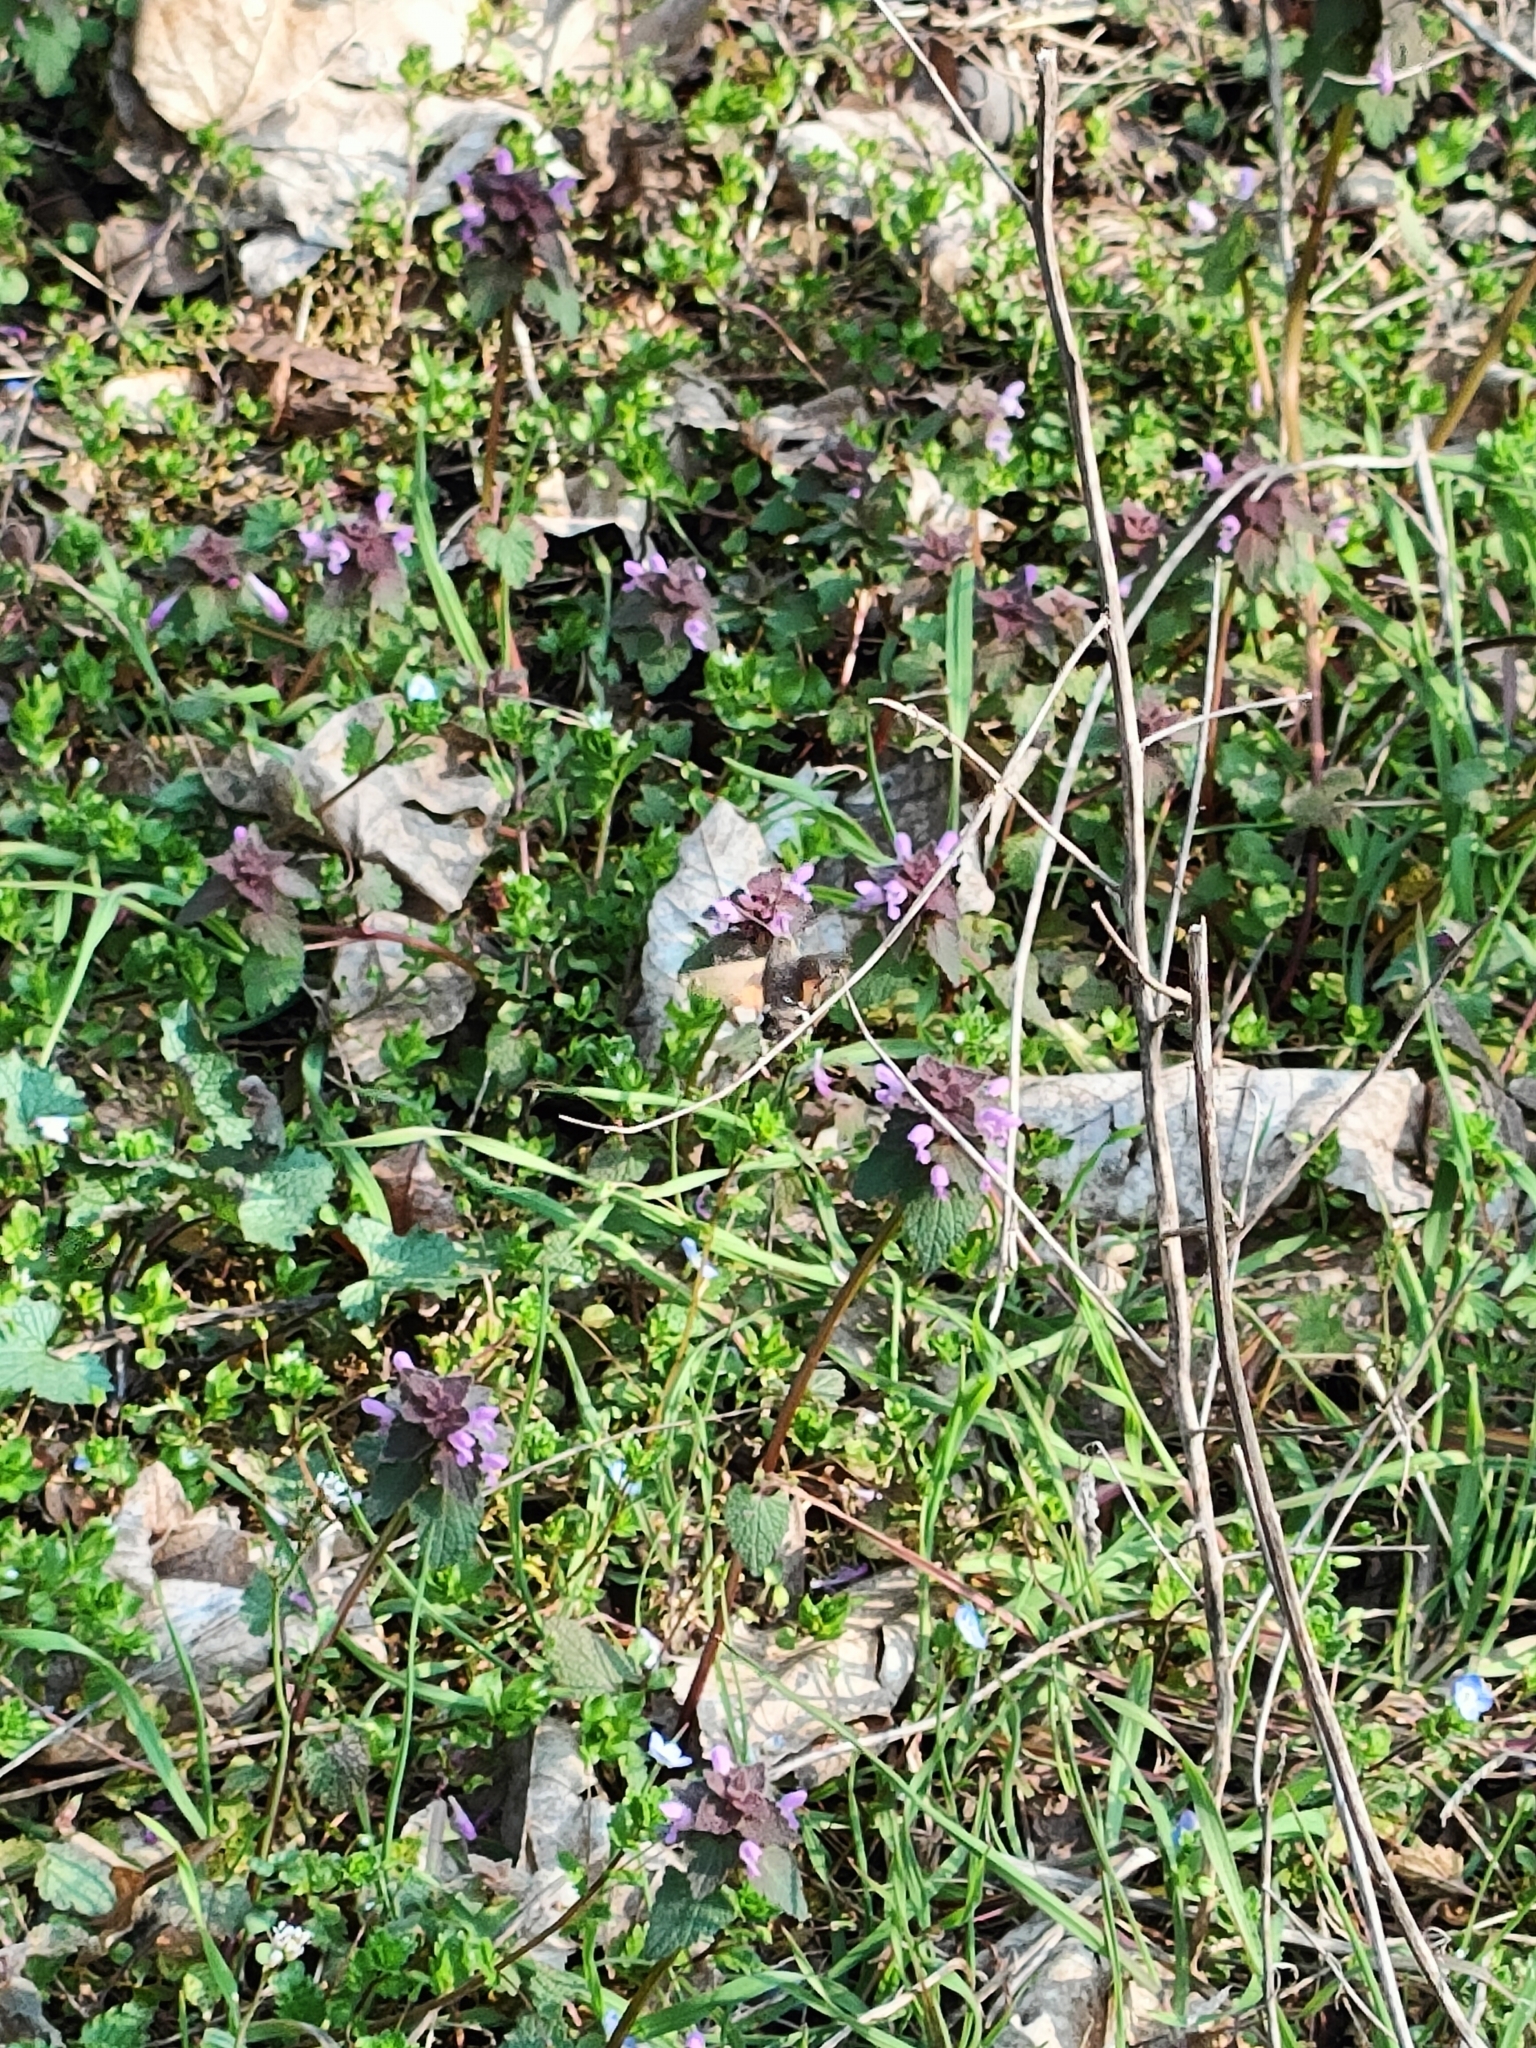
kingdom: Animalia
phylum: Arthropoda
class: Insecta
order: Lepidoptera
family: Sphingidae
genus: Macroglossum
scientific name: Macroglossum stellatarum
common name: Humming-bird hawk-moth
